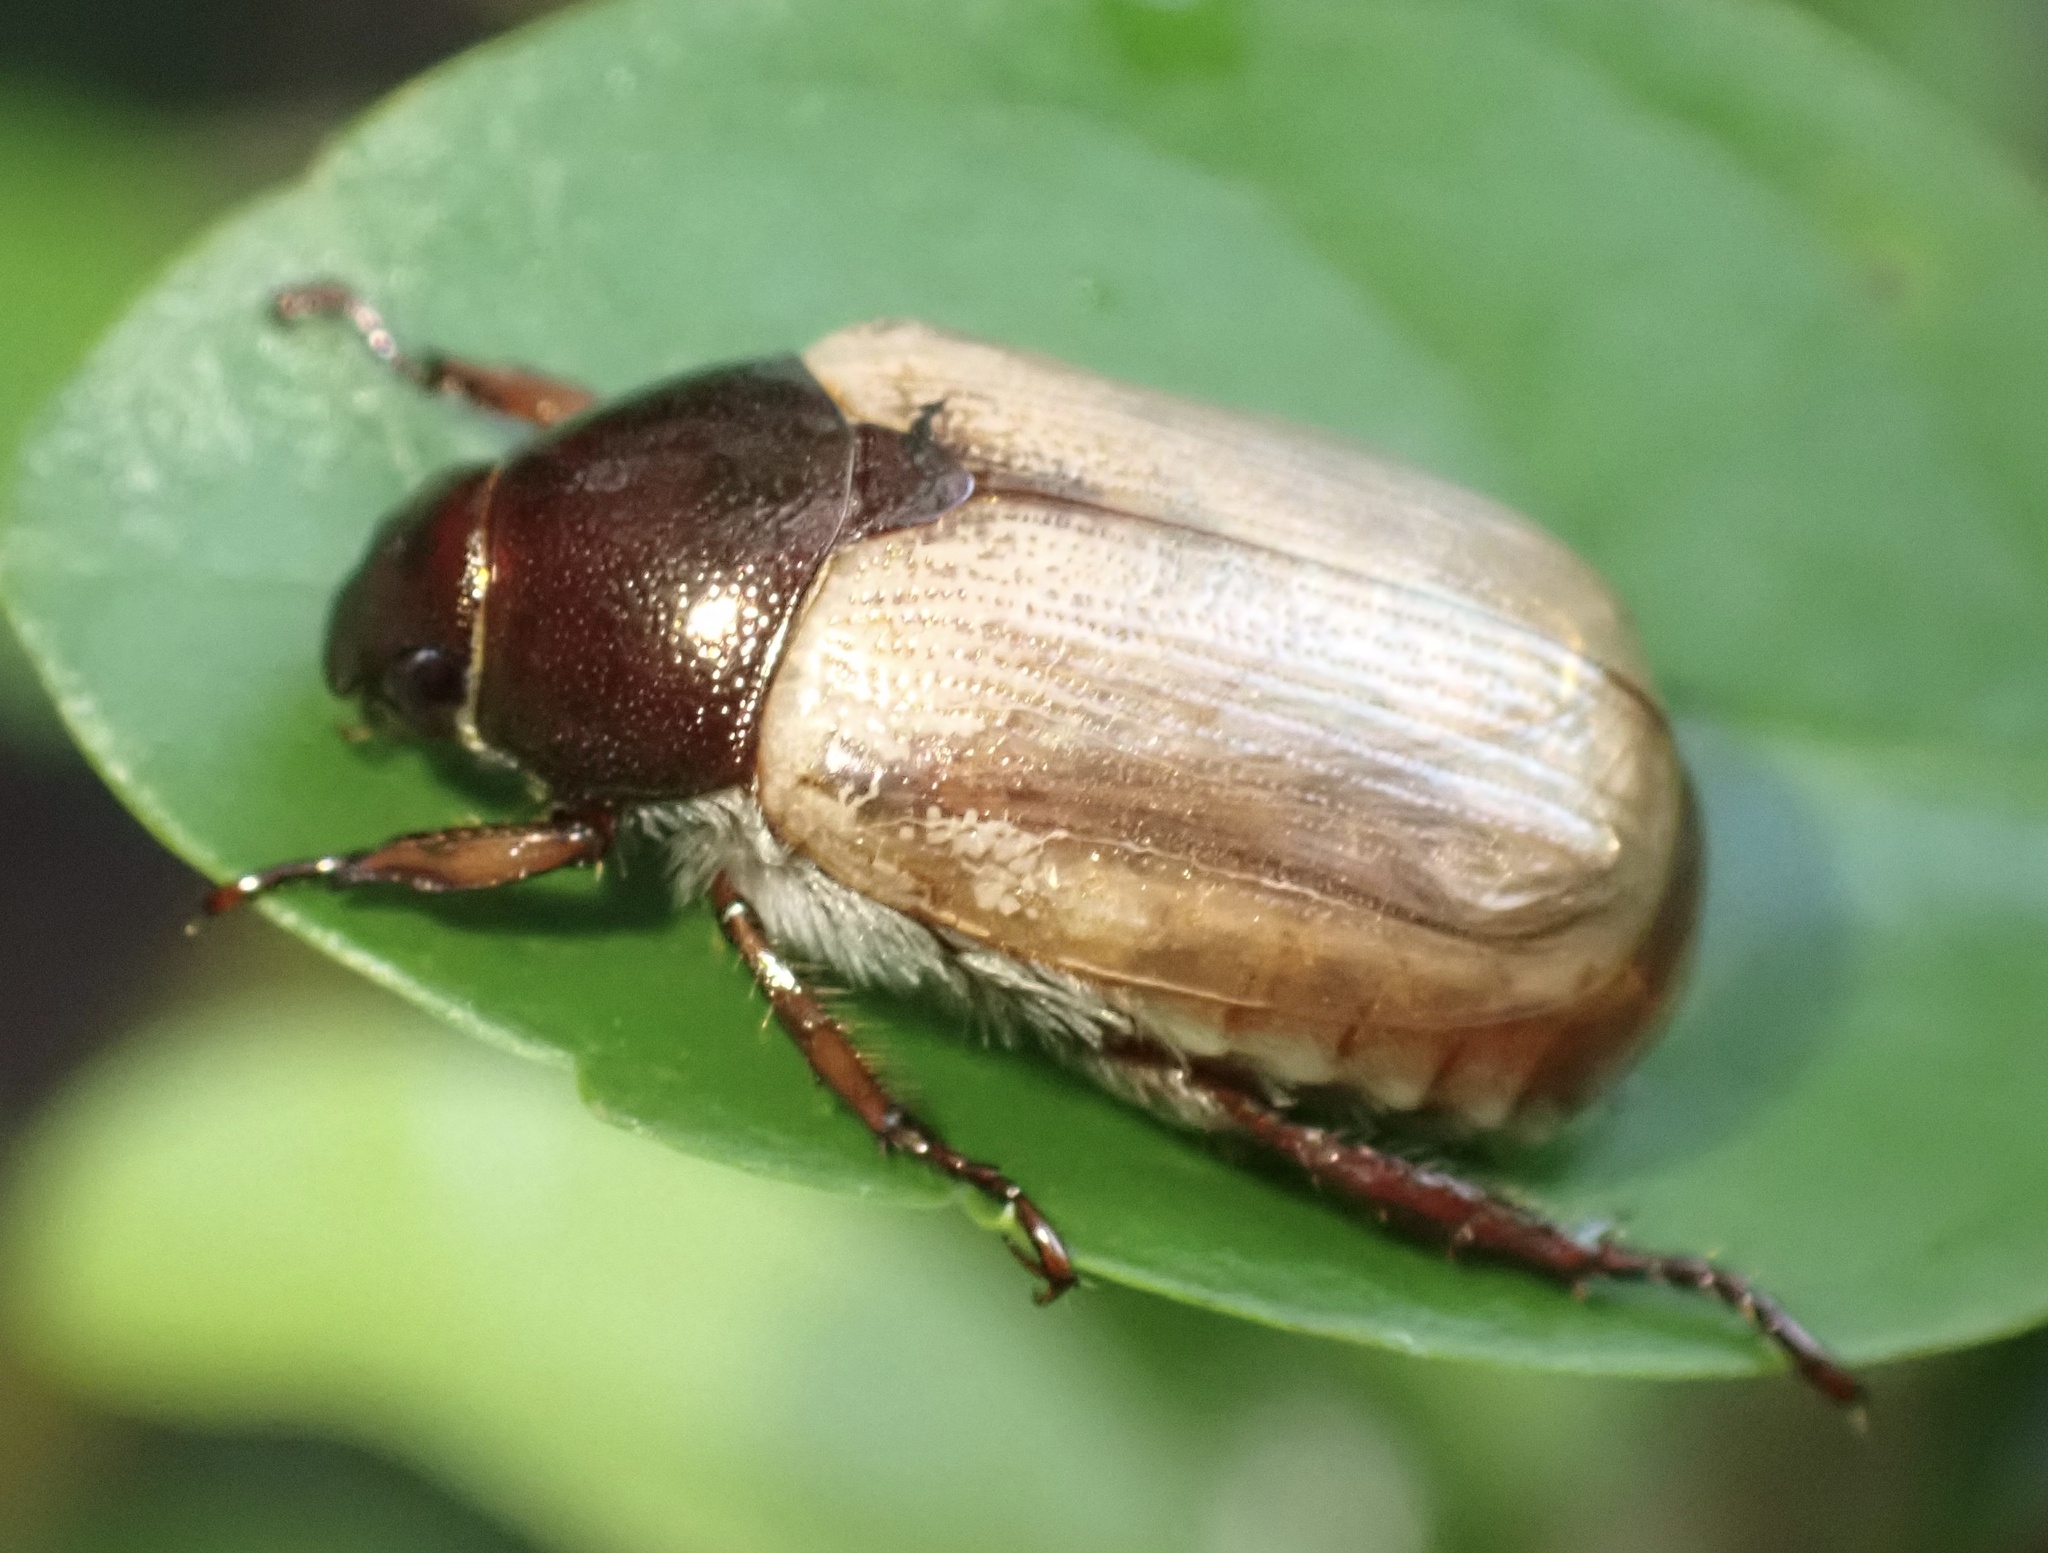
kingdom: Animalia
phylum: Arthropoda
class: Insecta
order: Coleoptera
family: Scarabaeidae
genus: Anomala
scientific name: Anomala brachycaula
